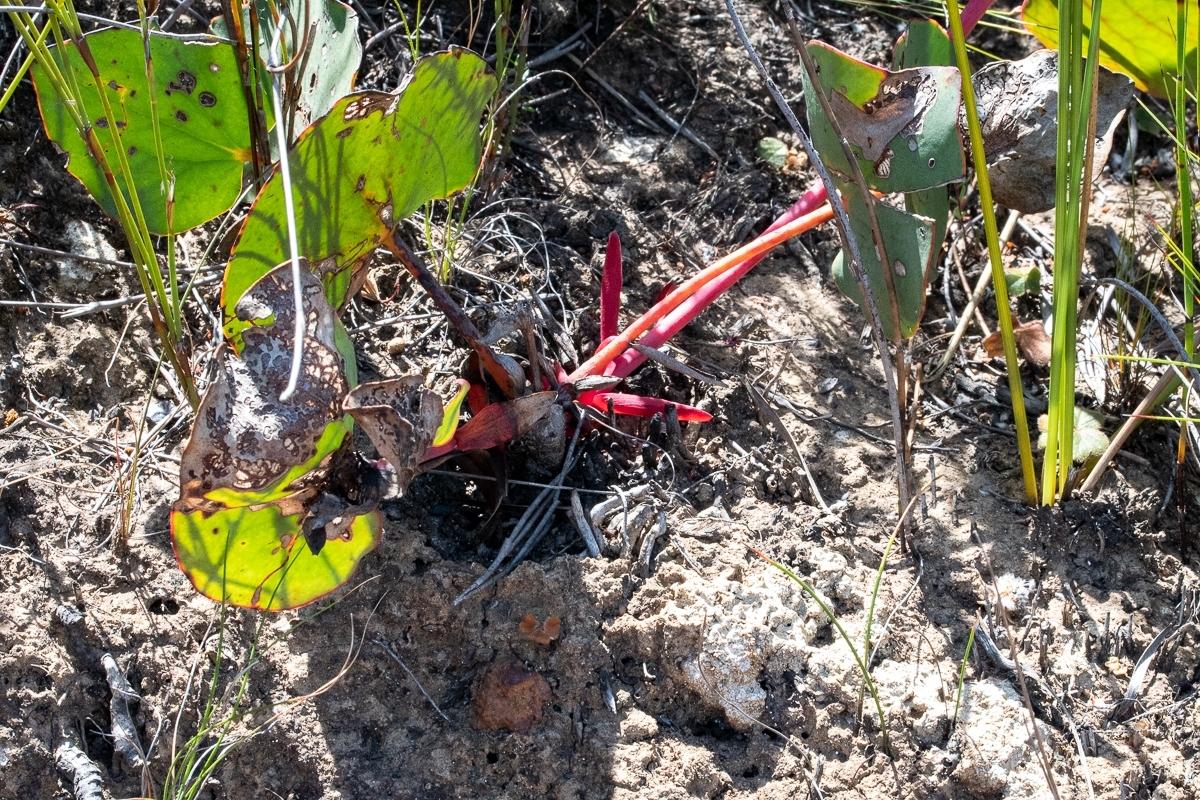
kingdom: Plantae
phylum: Tracheophyta
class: Magnoliopsida
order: Proteales
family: Proteaceae
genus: Protea
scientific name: Protea cordata
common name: Heart-leaf sugarbush
